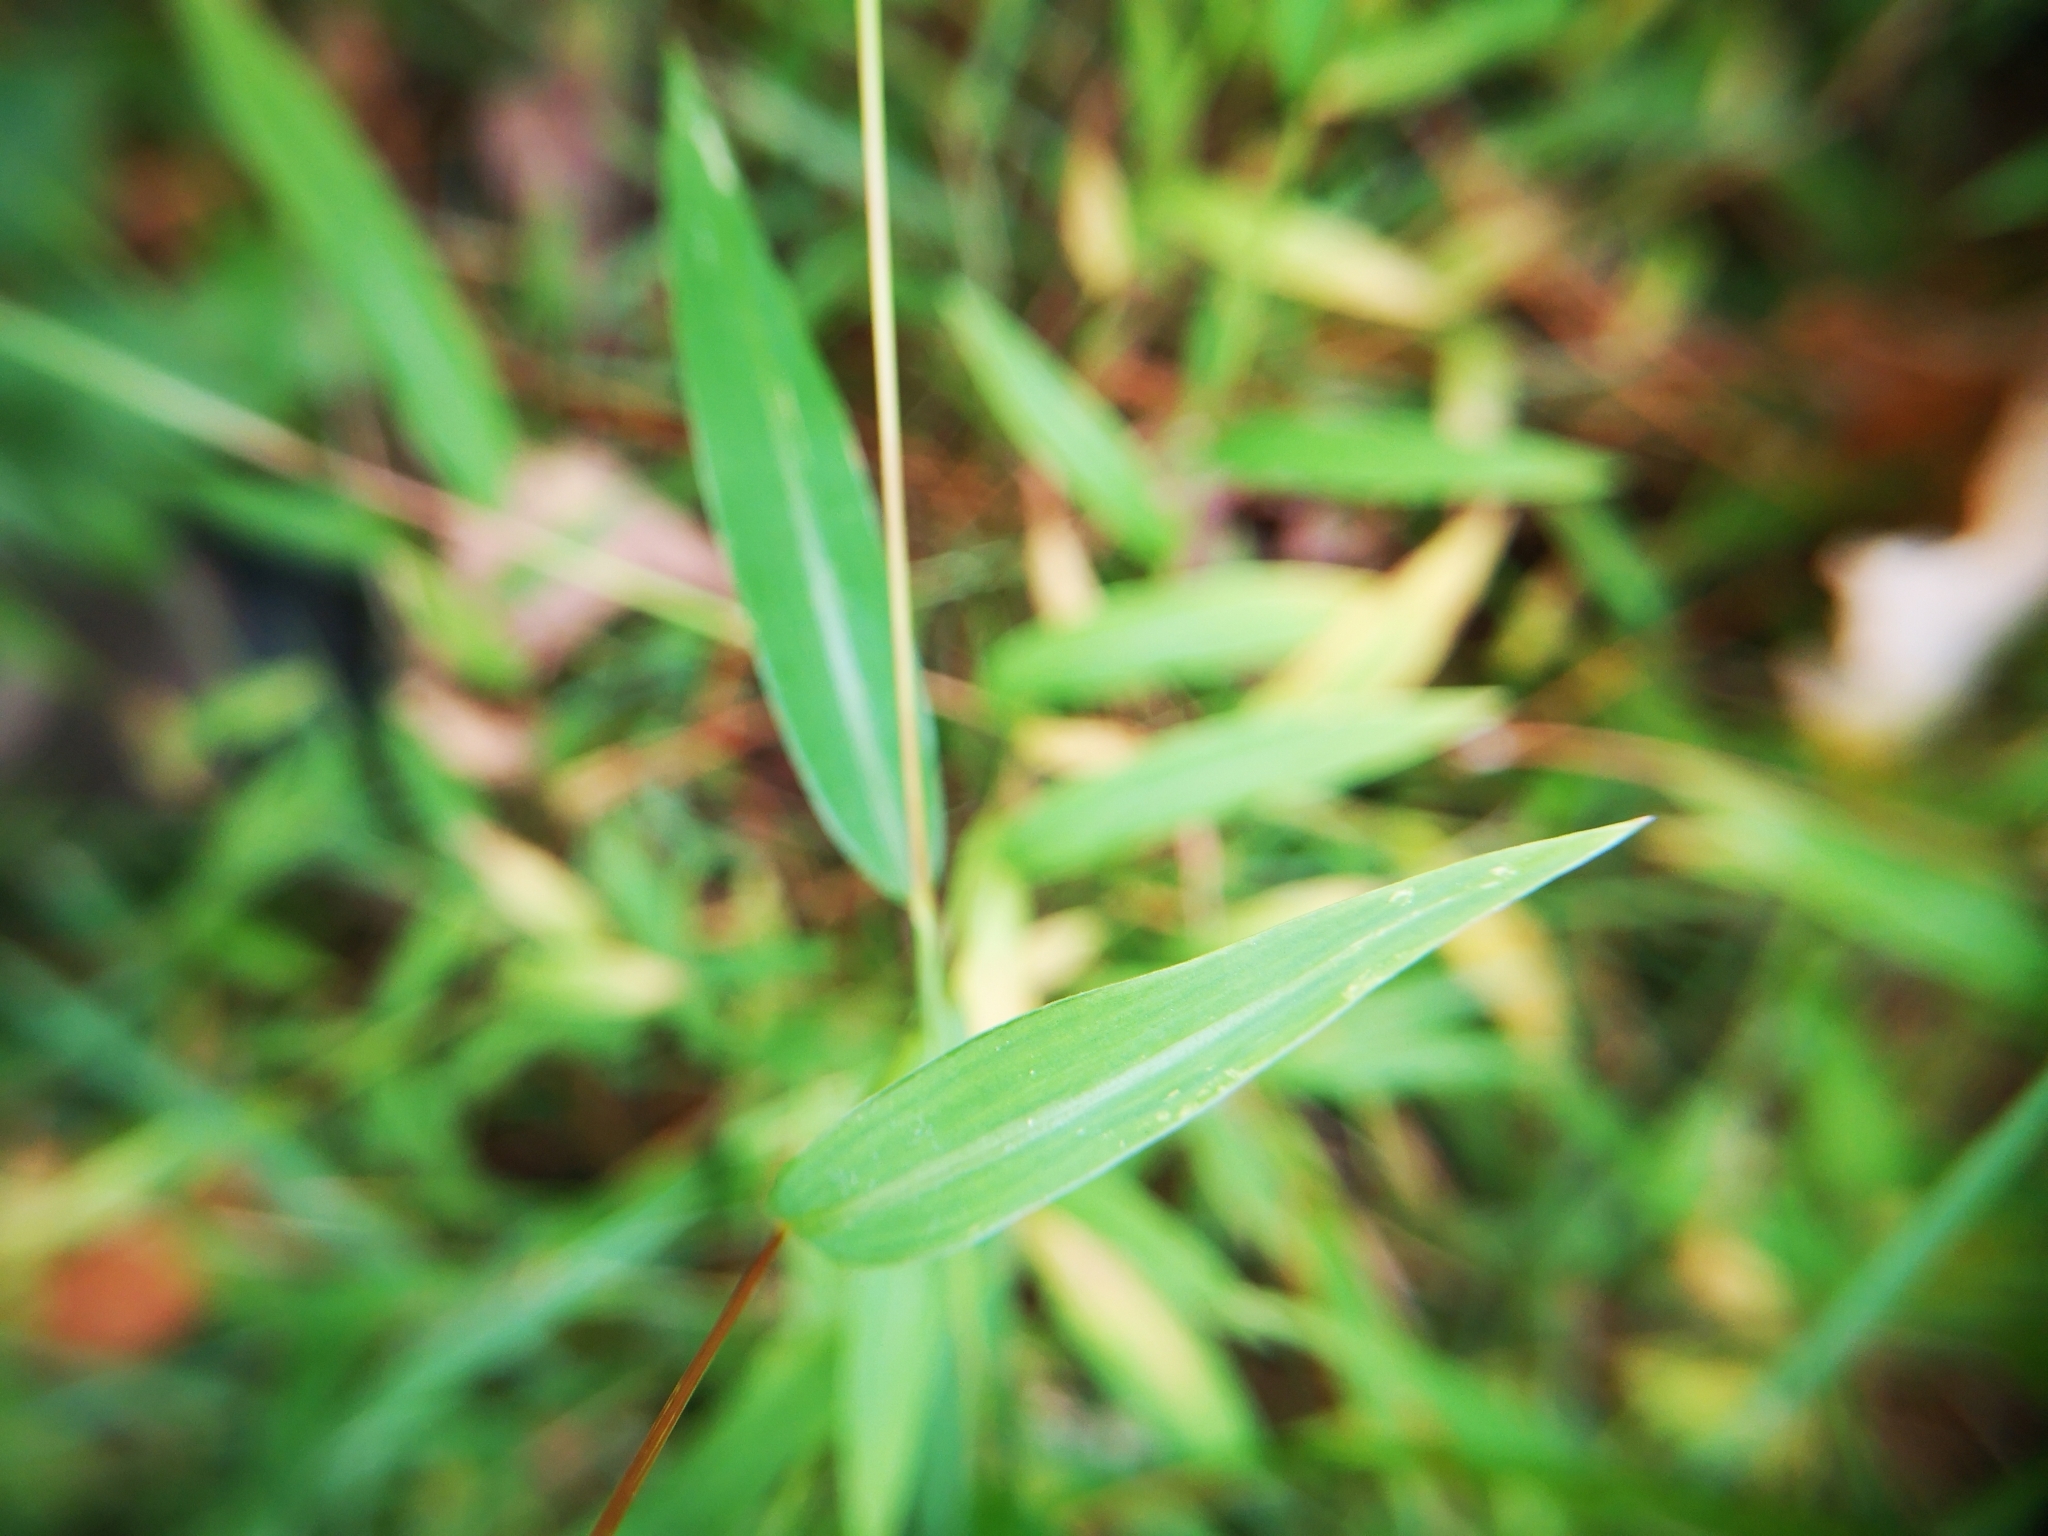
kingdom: Plantae
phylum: Tracheophyta
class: Liliopsida
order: Poales
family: Poaceae
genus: Microstegium
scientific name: Microstegium vimineum
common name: Japanese stiltgrass
